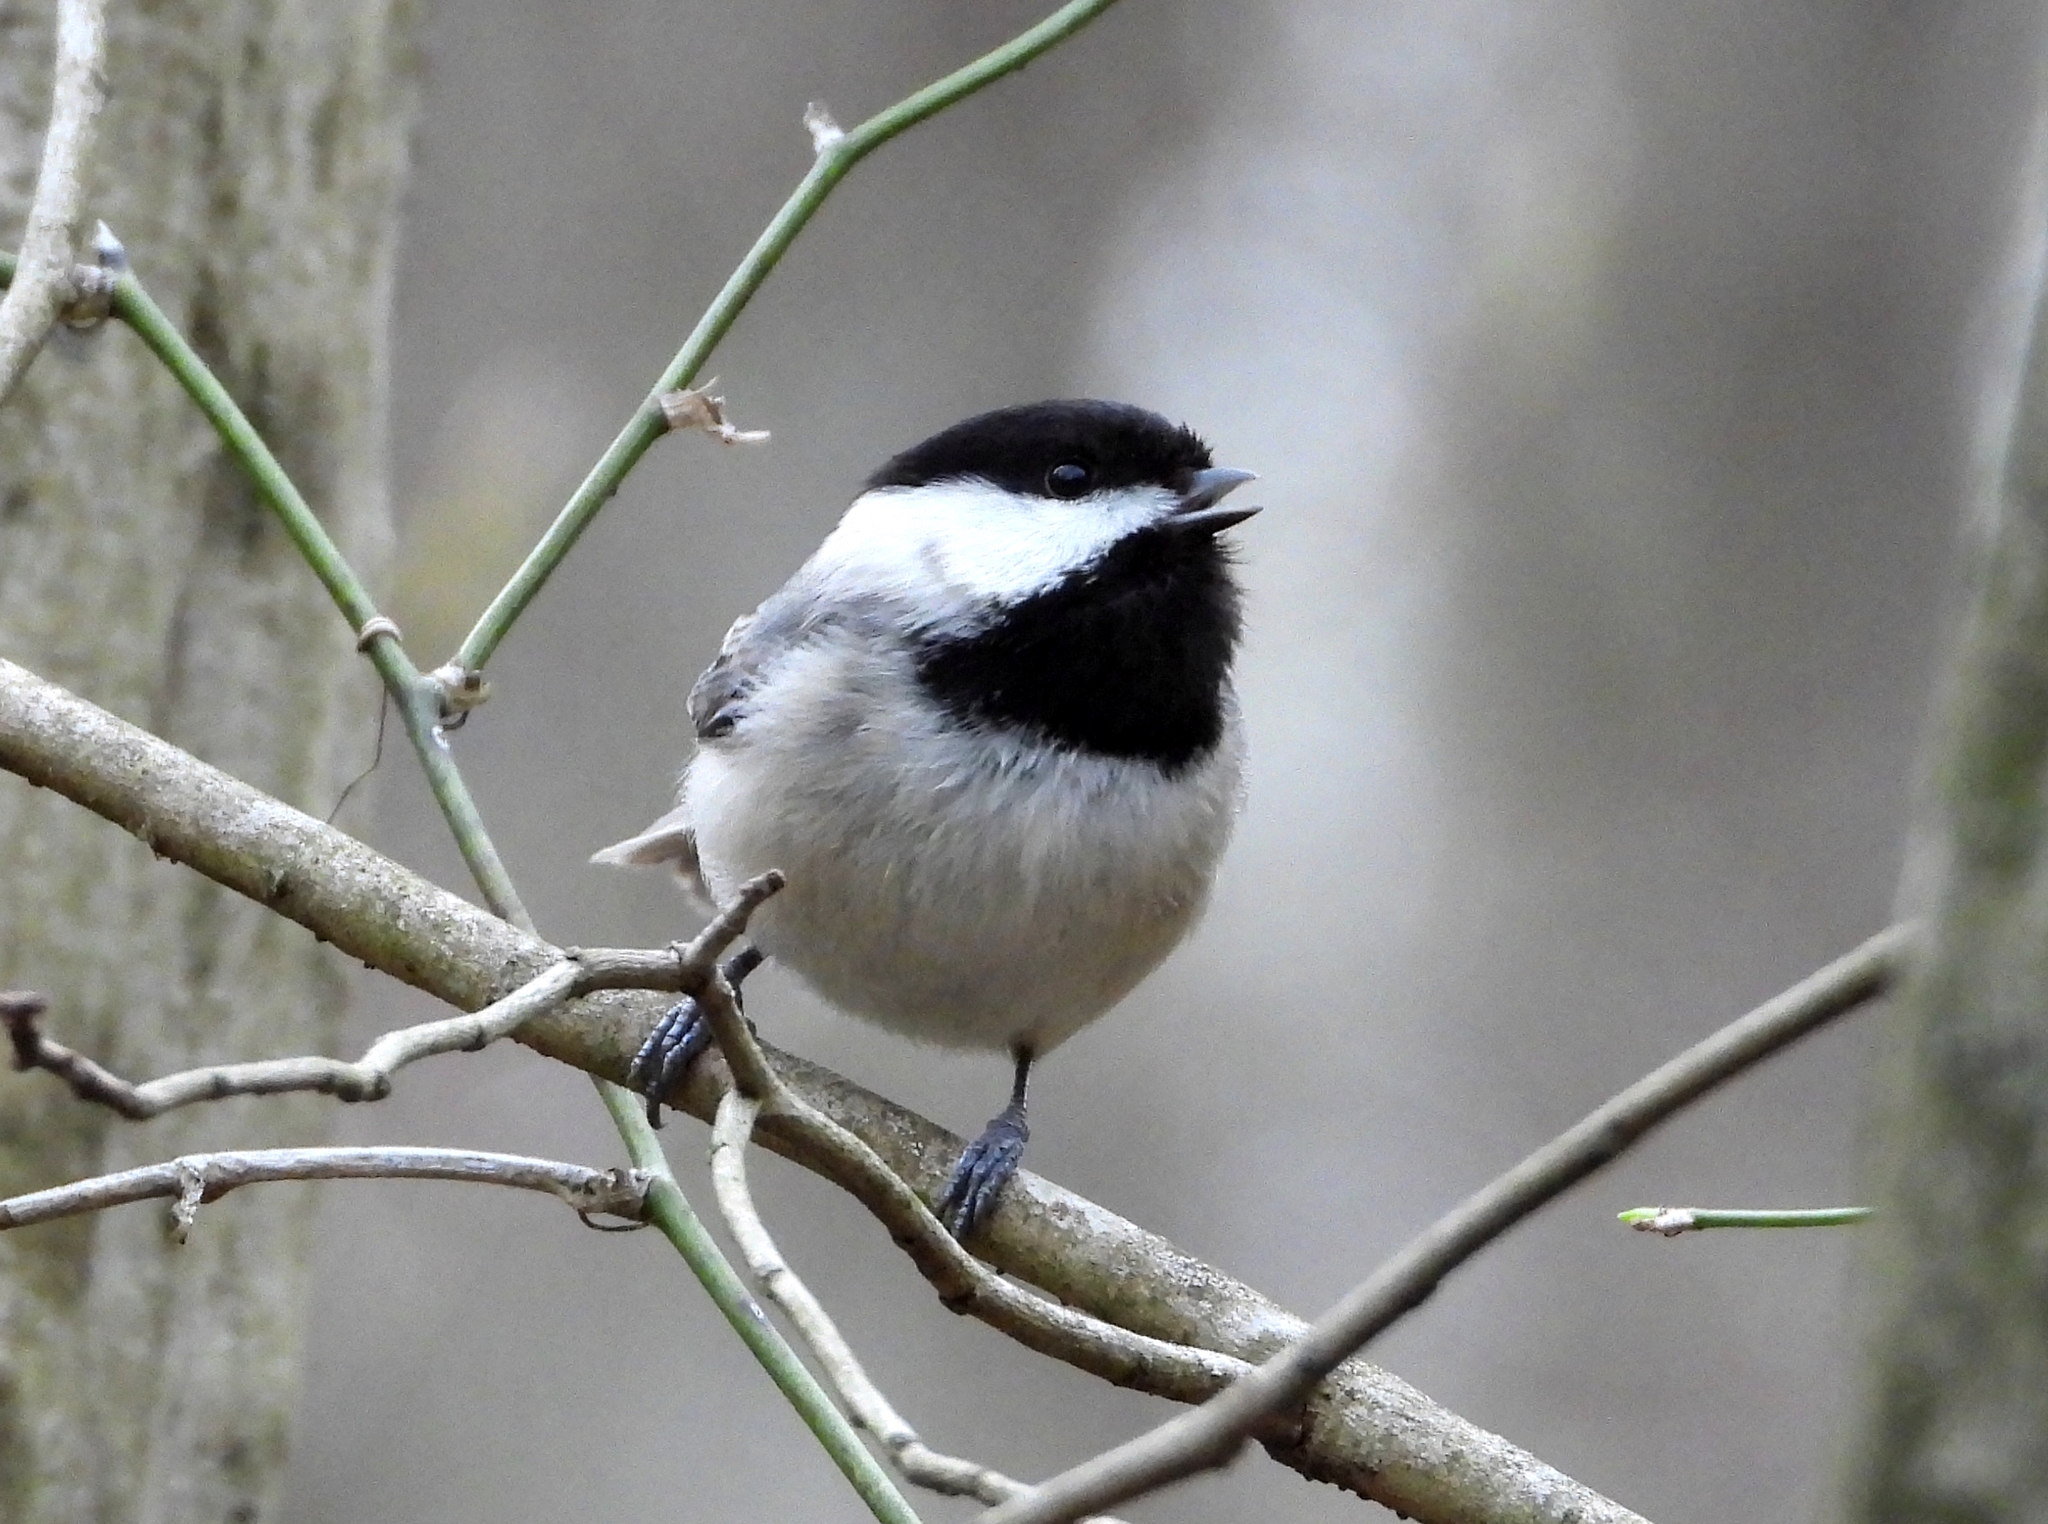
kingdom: Animalia
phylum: Chordata
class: Aves
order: Passeriformes
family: Paridae
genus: Poecile
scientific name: Poecile carolinensis
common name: Carolina chickadee
